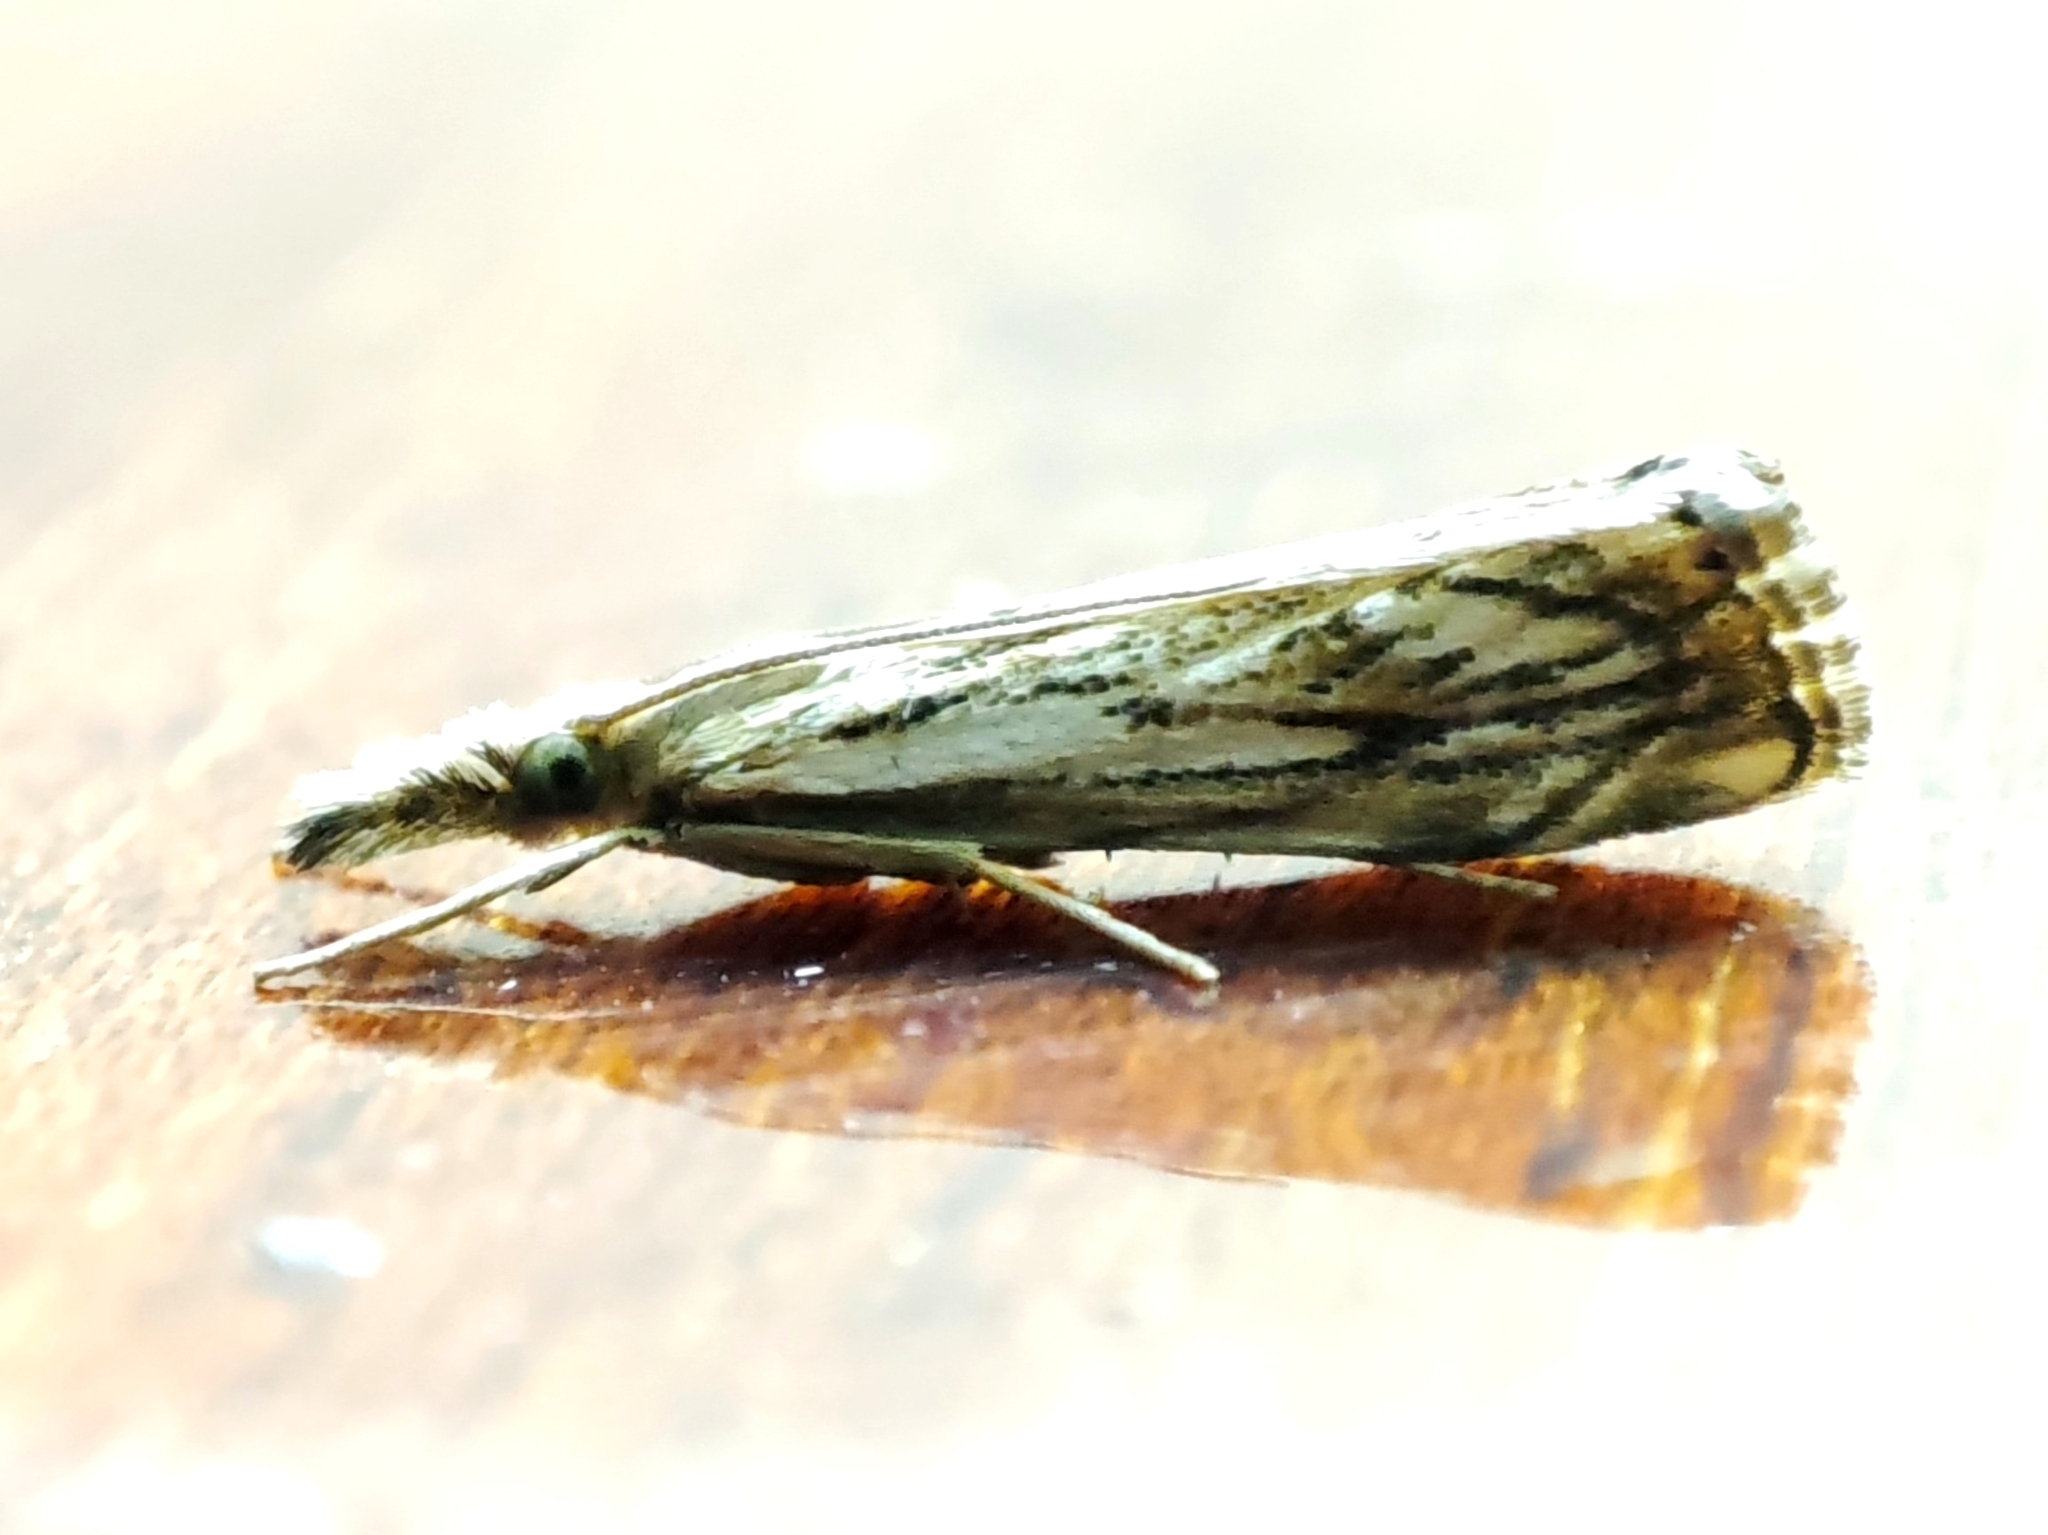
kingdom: Animalia
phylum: Arthropoda
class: Insecta
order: Lepidoptera
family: Crambidae
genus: Catoptria
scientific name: Catoptria falsella
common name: Chequered grass-veneer
